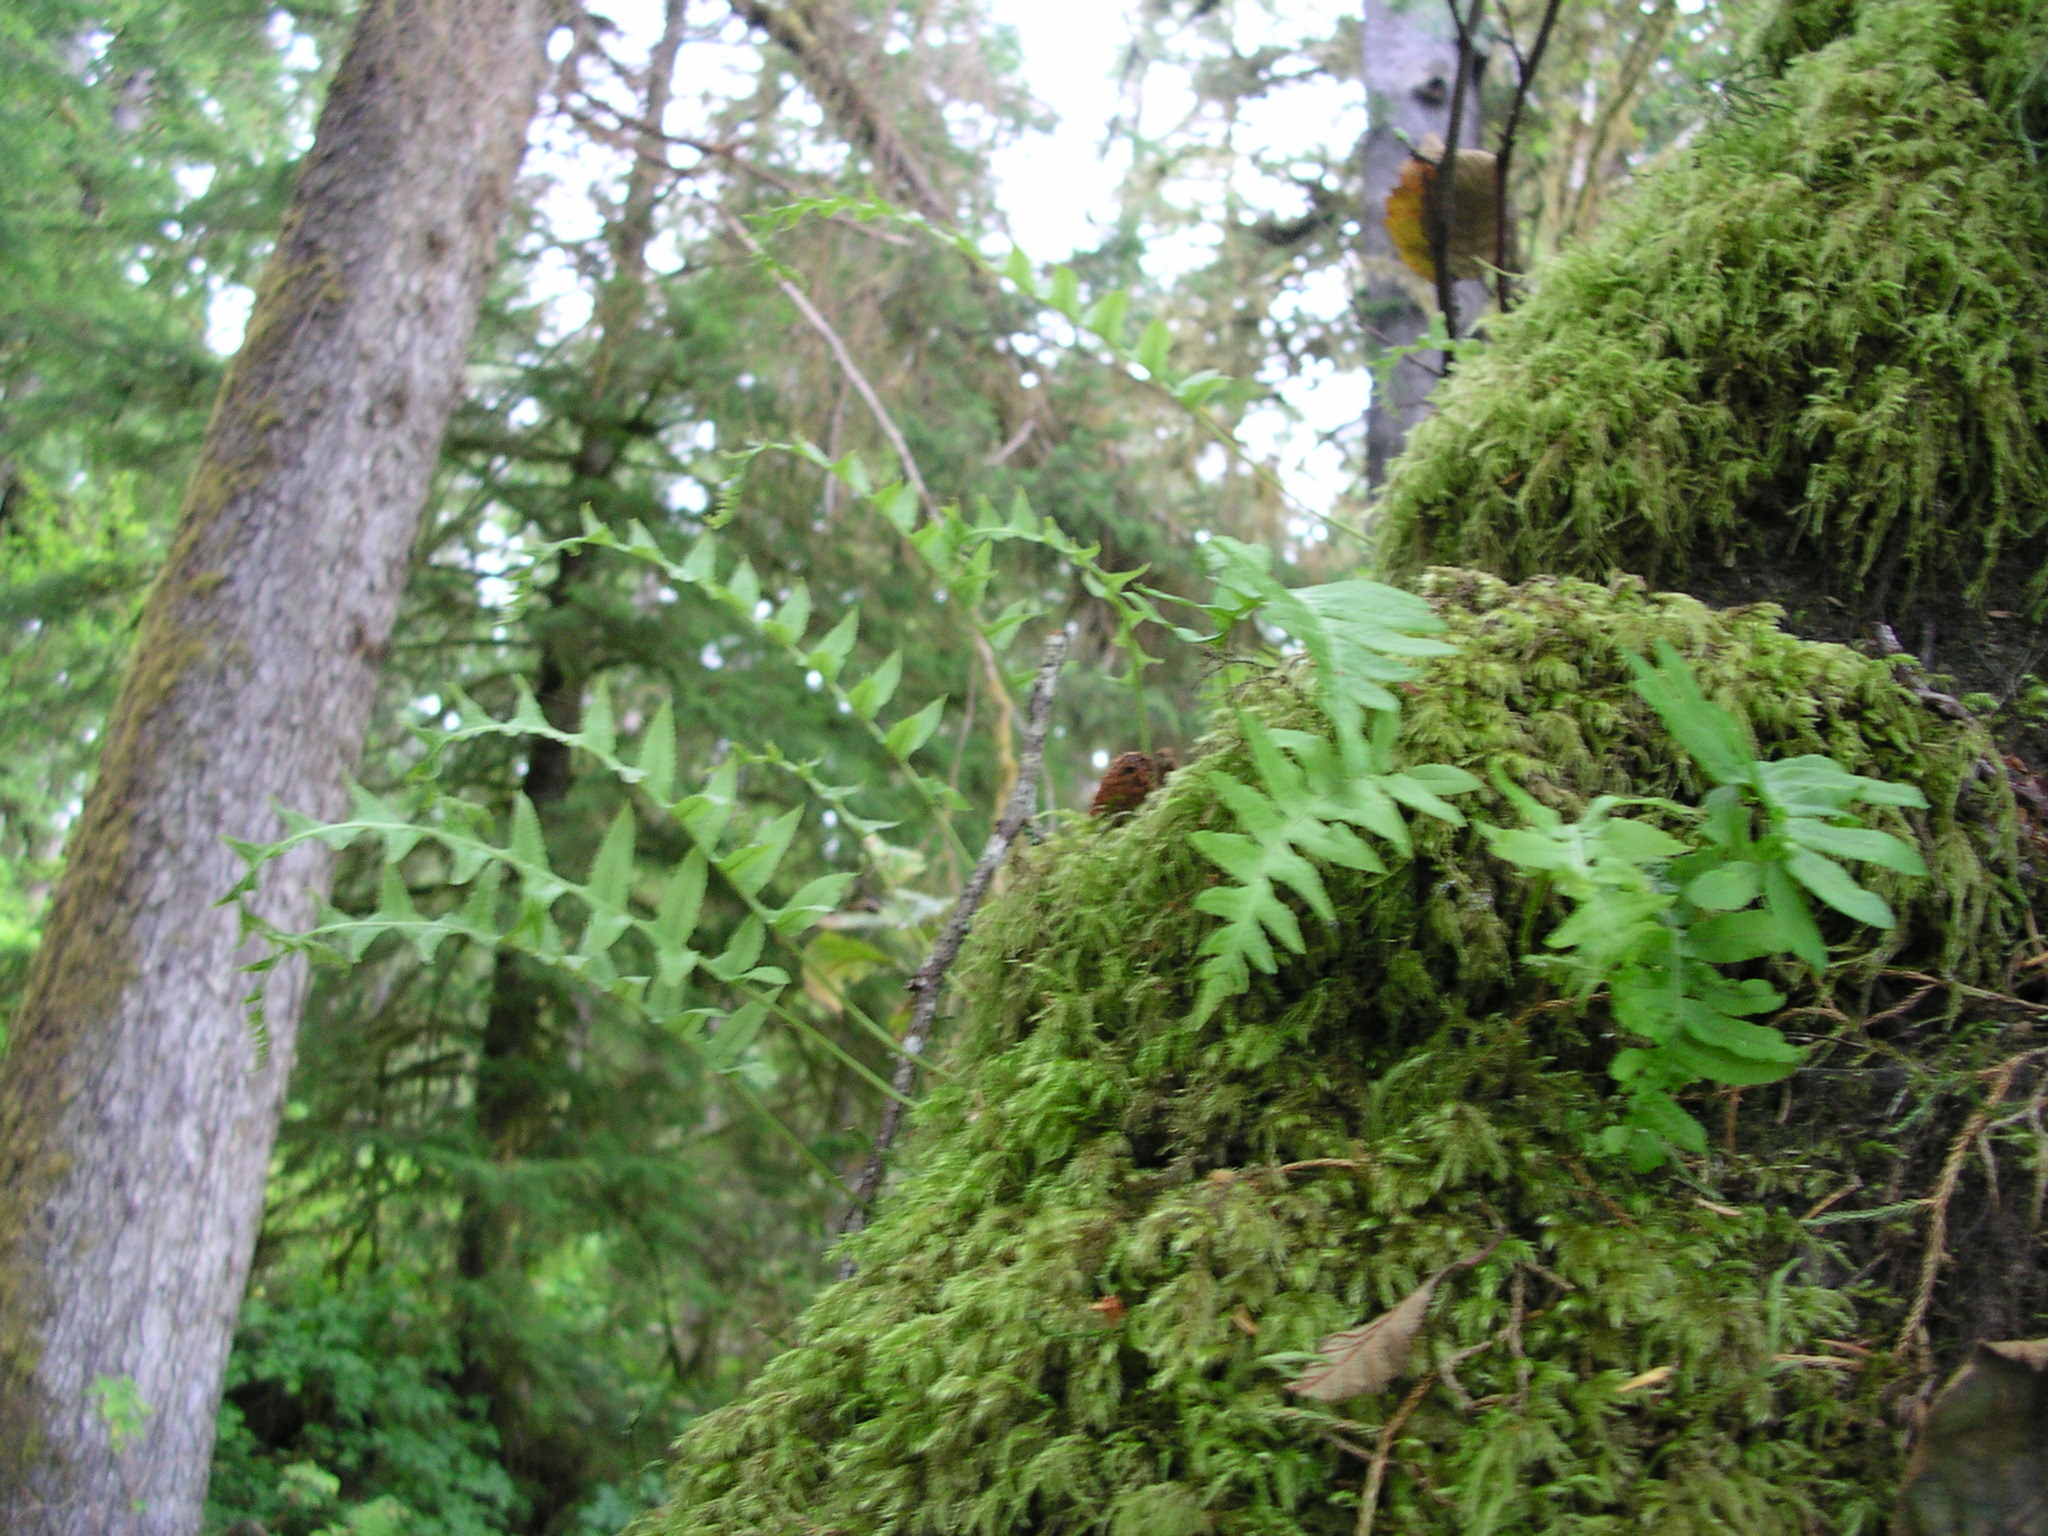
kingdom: Plantae
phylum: Tracheophyta
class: Polypodiopsida
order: Polypodiales
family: Polypodiaceae
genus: Polypodium
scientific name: Polypodium glycyrrhiza
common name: Licorice fern
